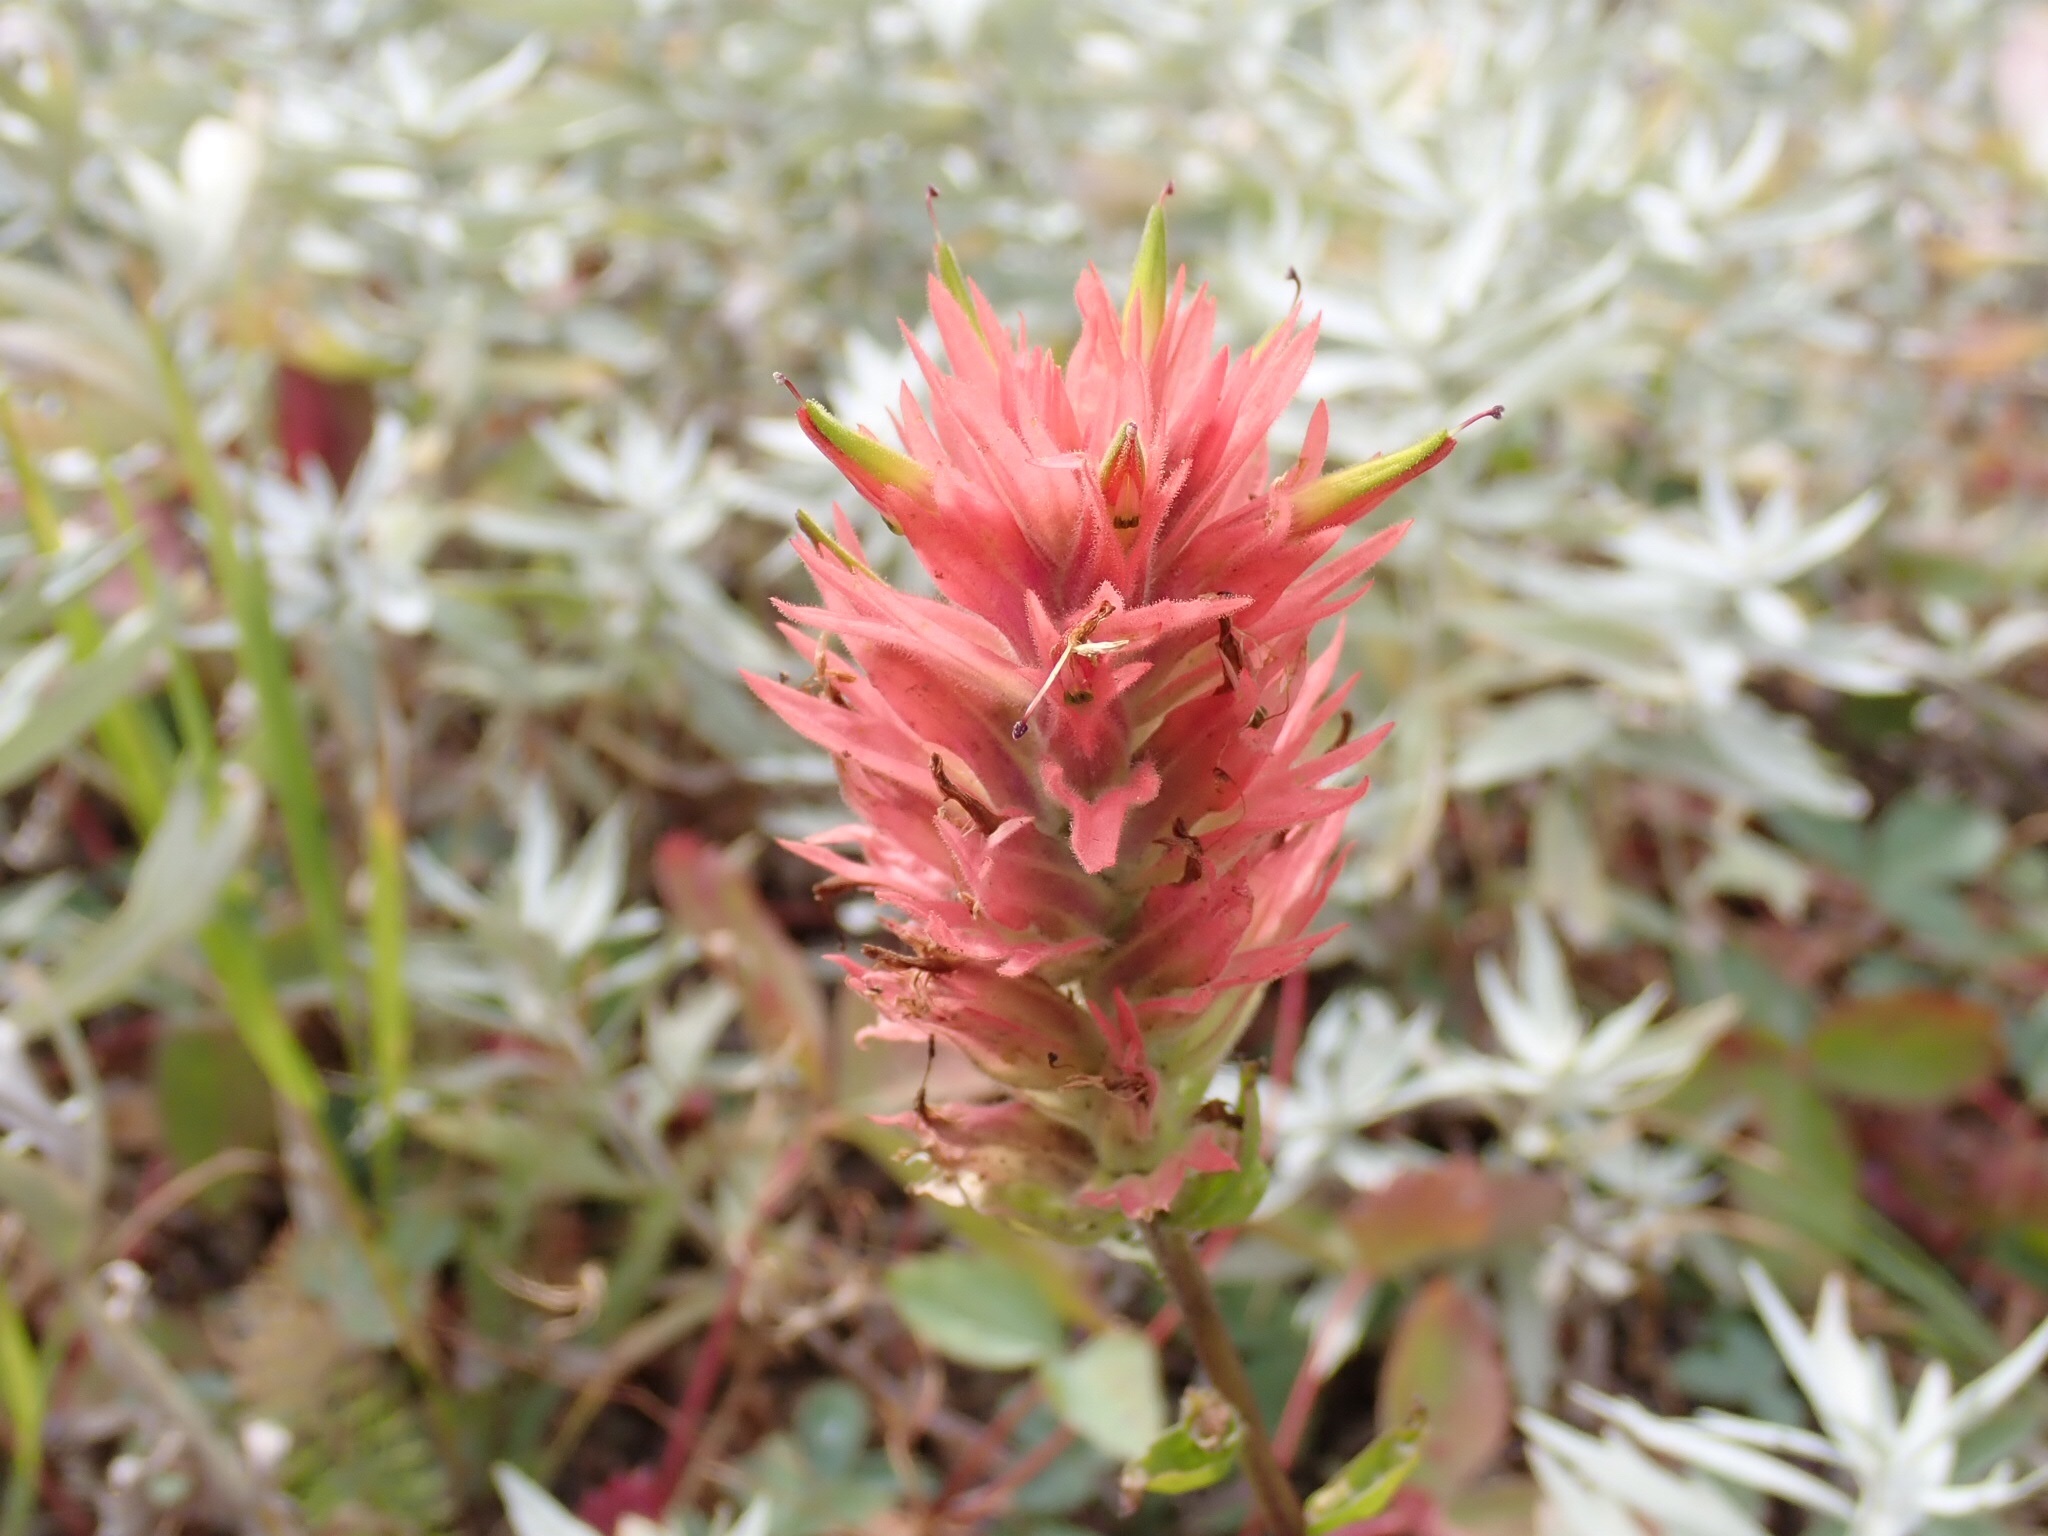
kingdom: Plantae
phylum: Tracheophyta
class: Magnoliopsida
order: Lamiales
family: Orobanchaceae
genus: Castilleja
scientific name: Castilleja miniata
